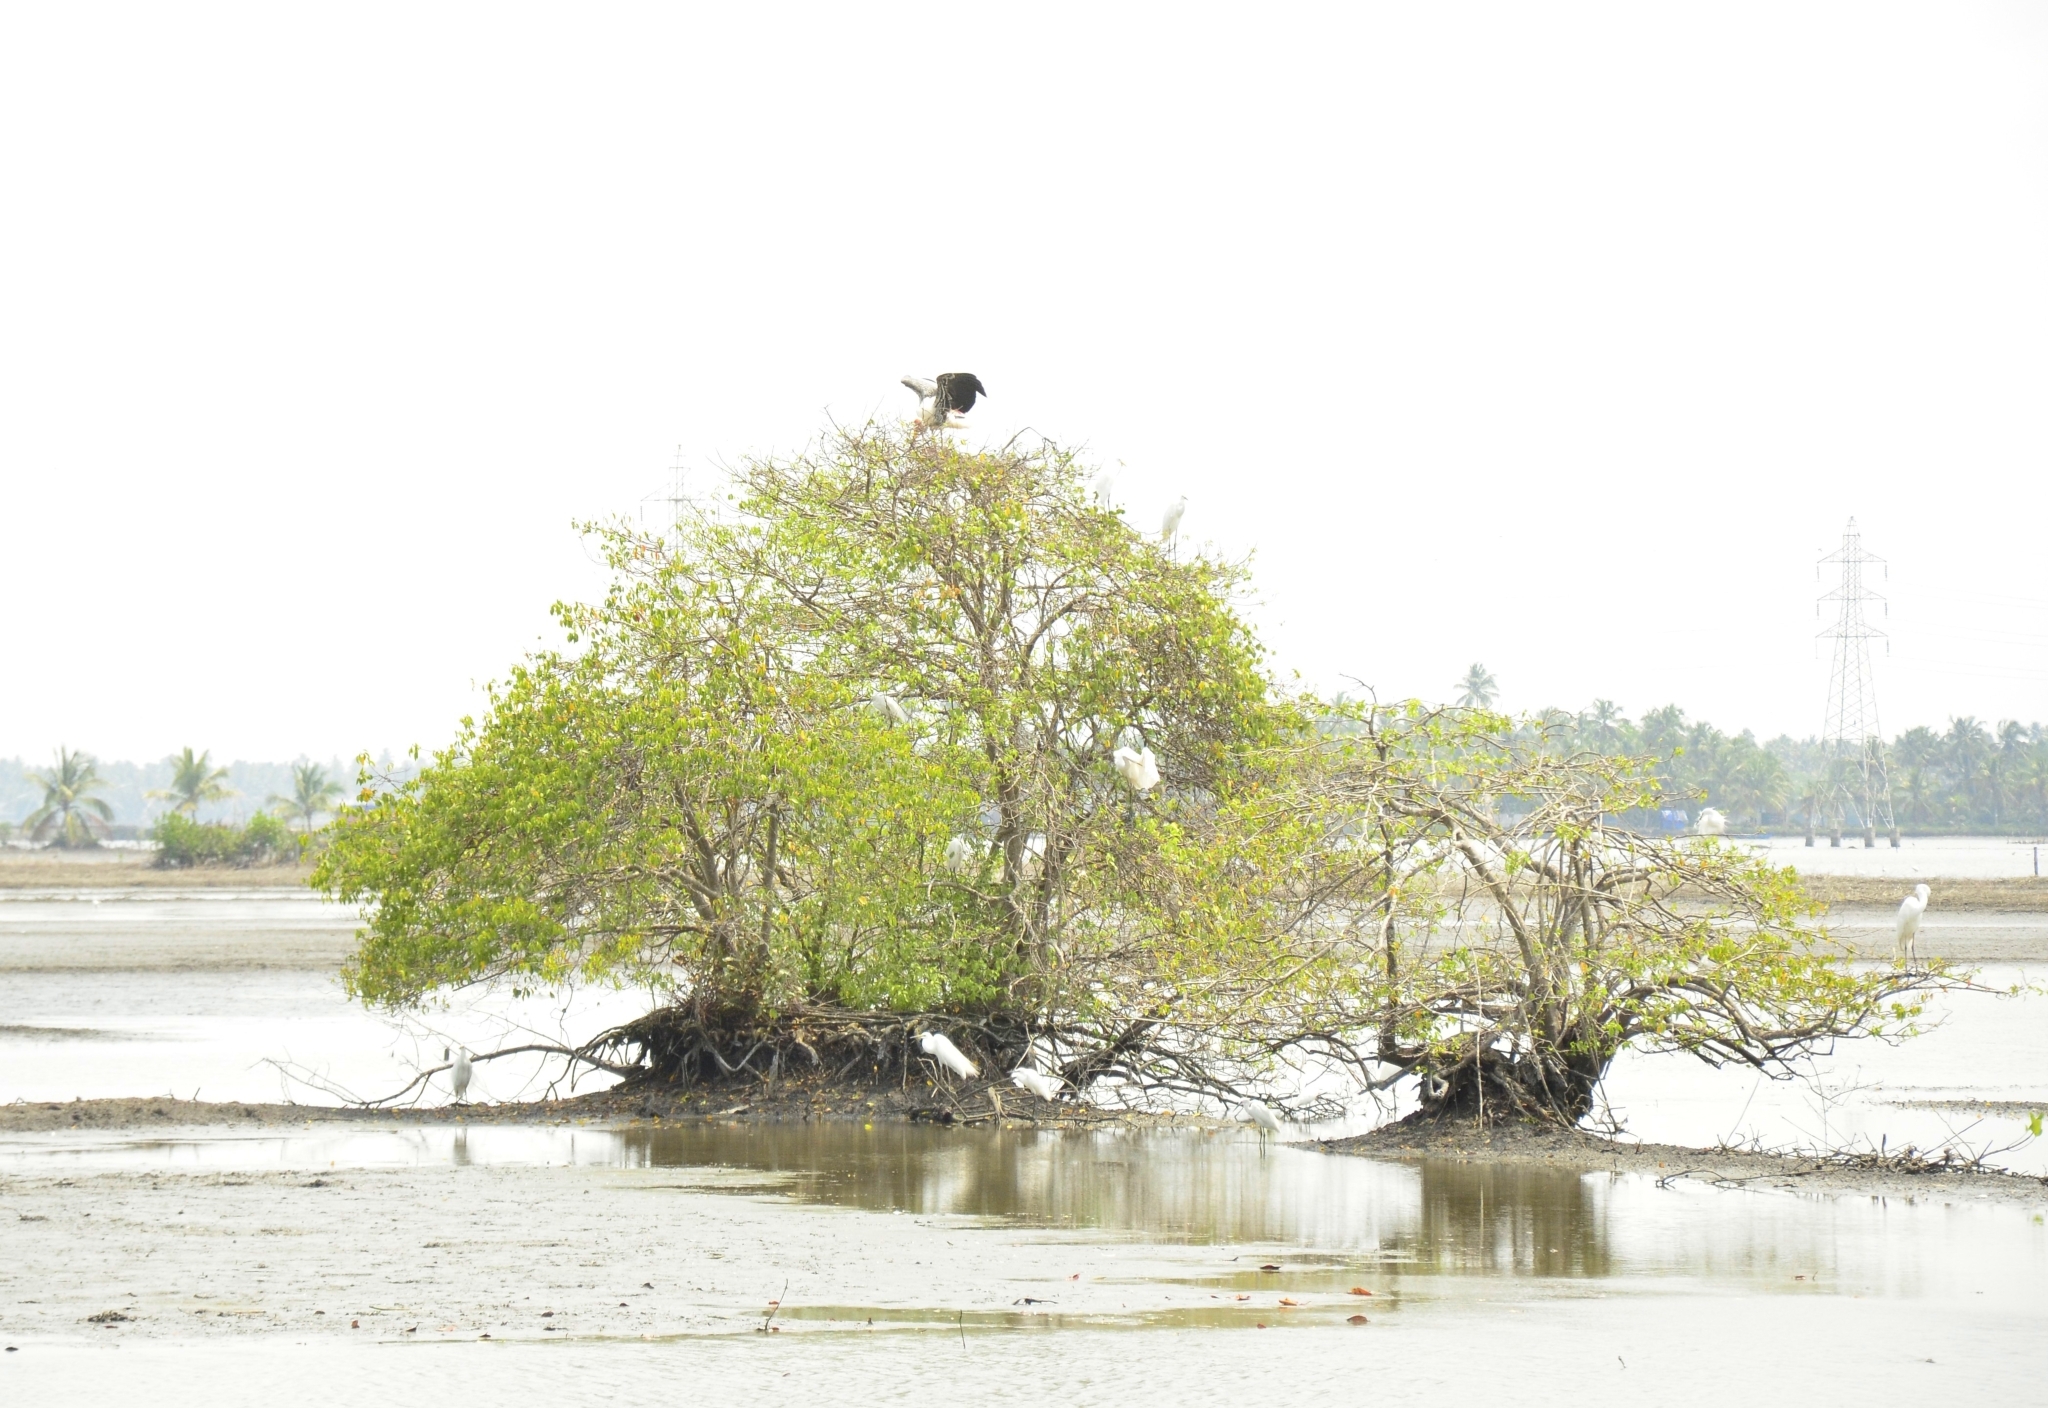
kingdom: Plantae
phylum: Tracheophyta
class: Magnoliopsida
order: Malpighiales
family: Euphorbiaceae
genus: Excoecaria
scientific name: Excoecaria agallocha
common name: River poisontree
